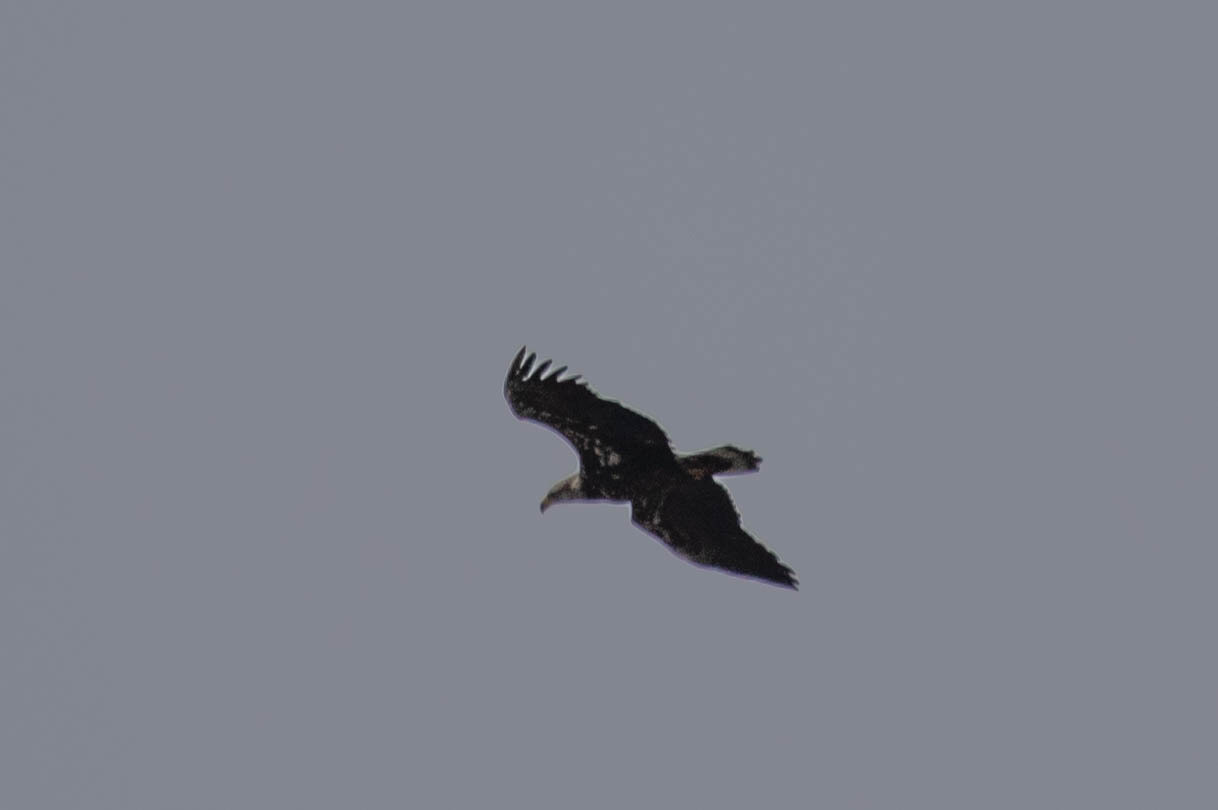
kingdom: Animalia
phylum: Chordata
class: Aves
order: Accipitriformes
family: Accipitridae
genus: Haliaeetus
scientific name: Haliaeetus leucocephalus
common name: Bald eagle
